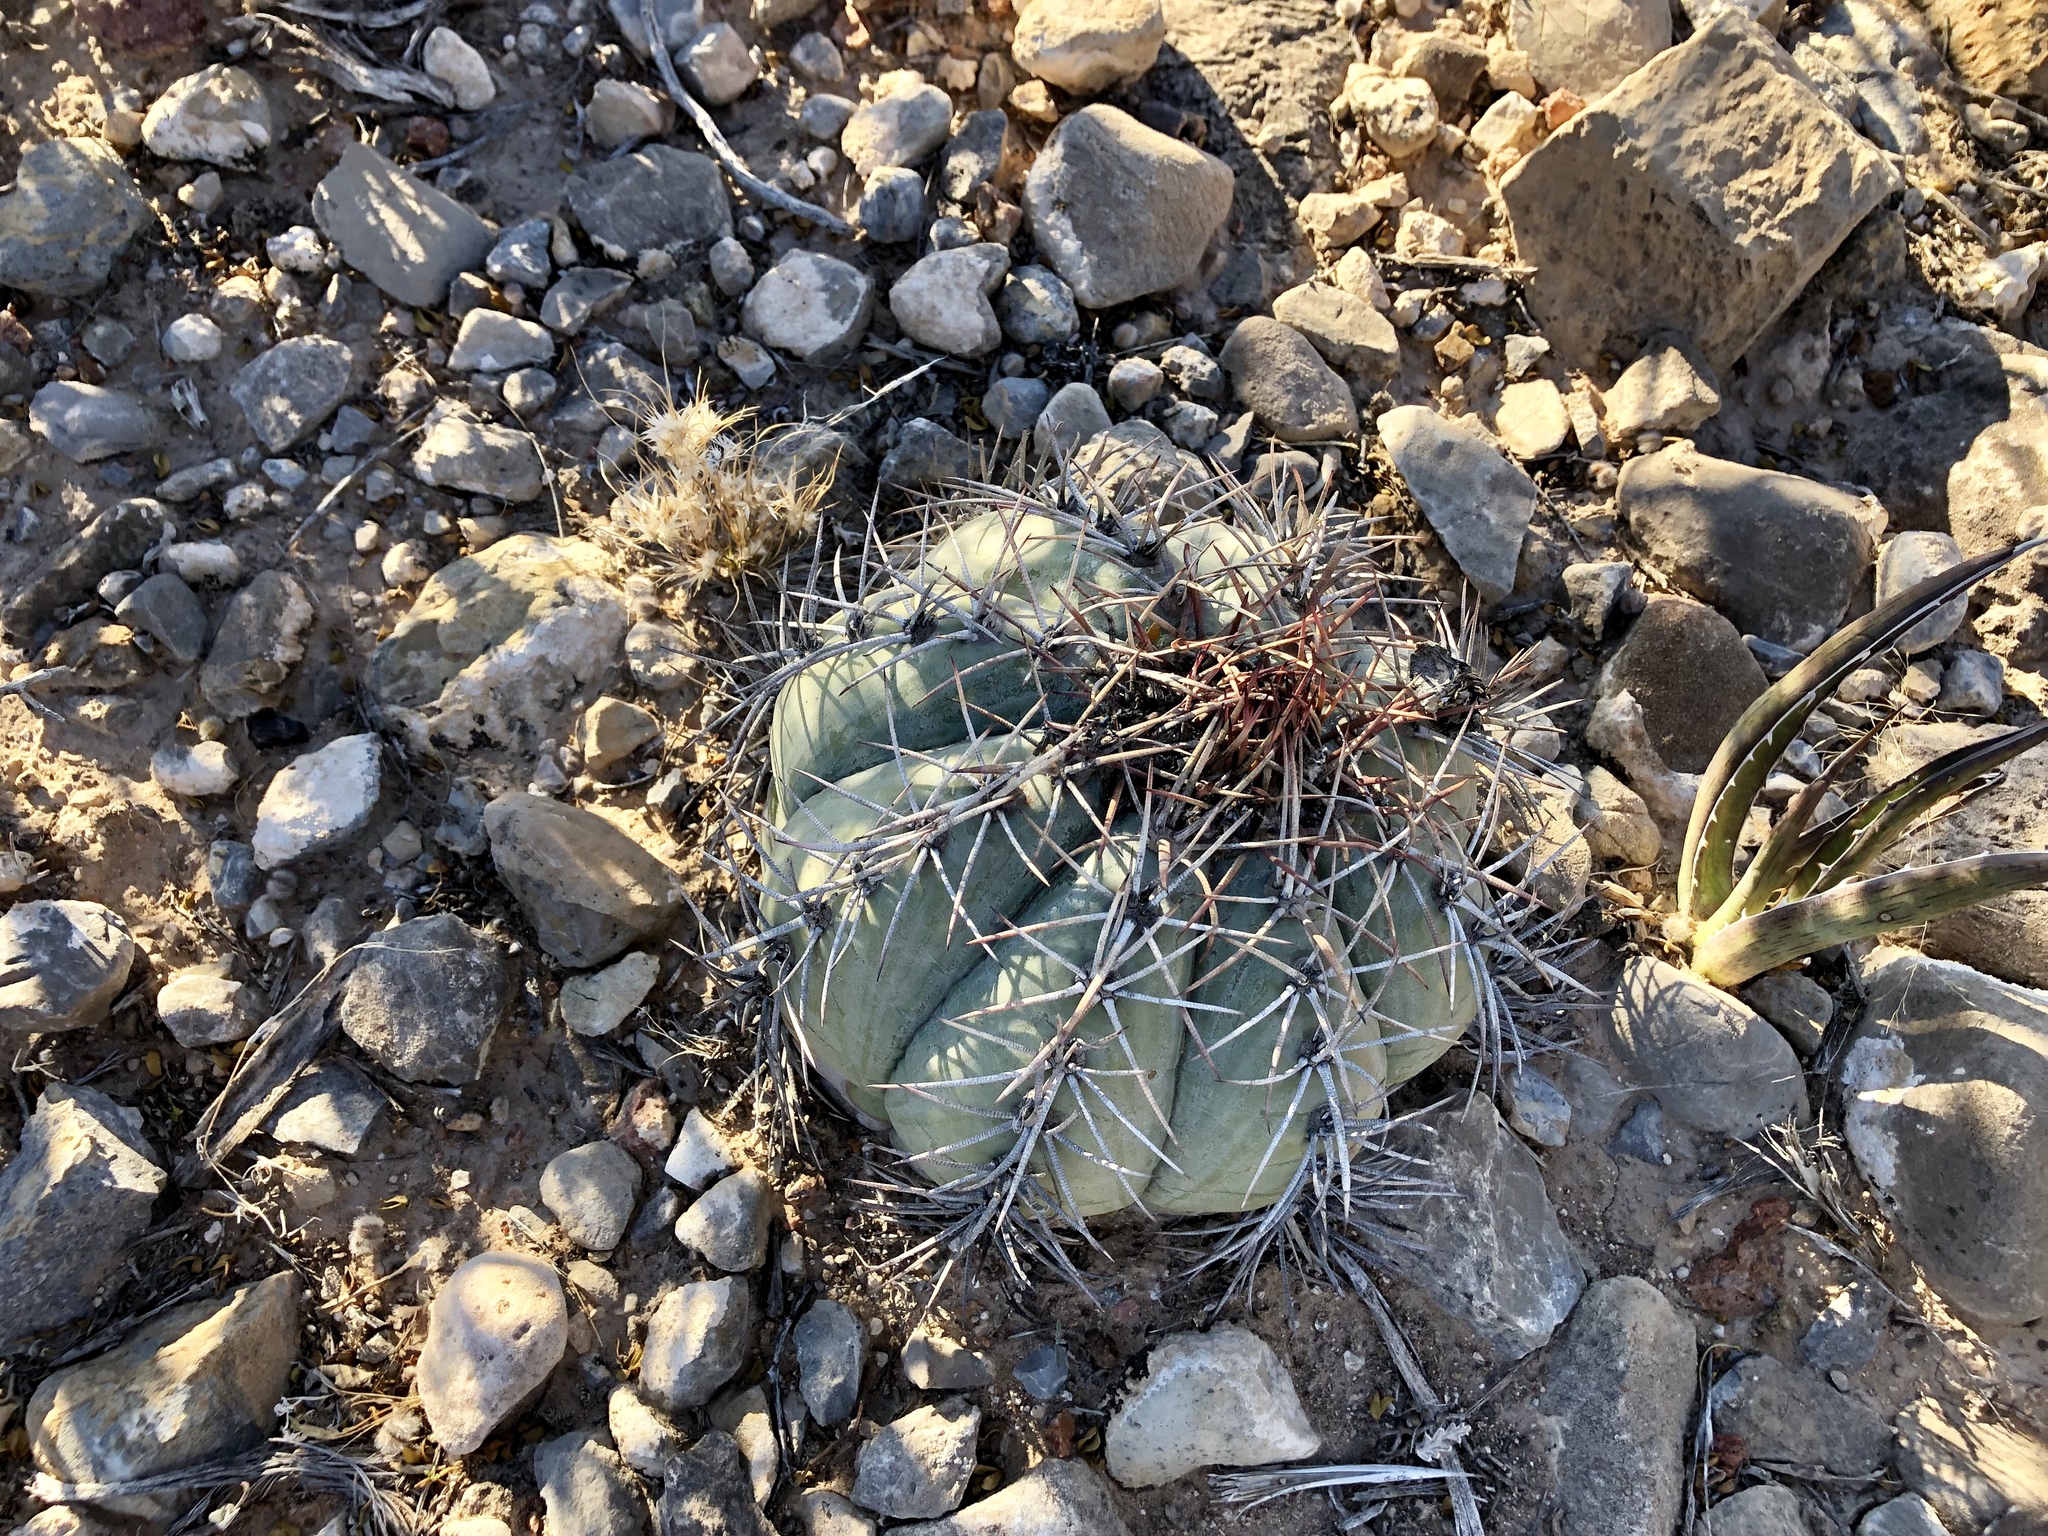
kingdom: Plantae
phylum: Tracheophyta
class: Magnoliopsida
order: Caryophyllales
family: Cactaceae
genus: Echinocactus
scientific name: Echinocactus horizonthalonius
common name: Devilshead
